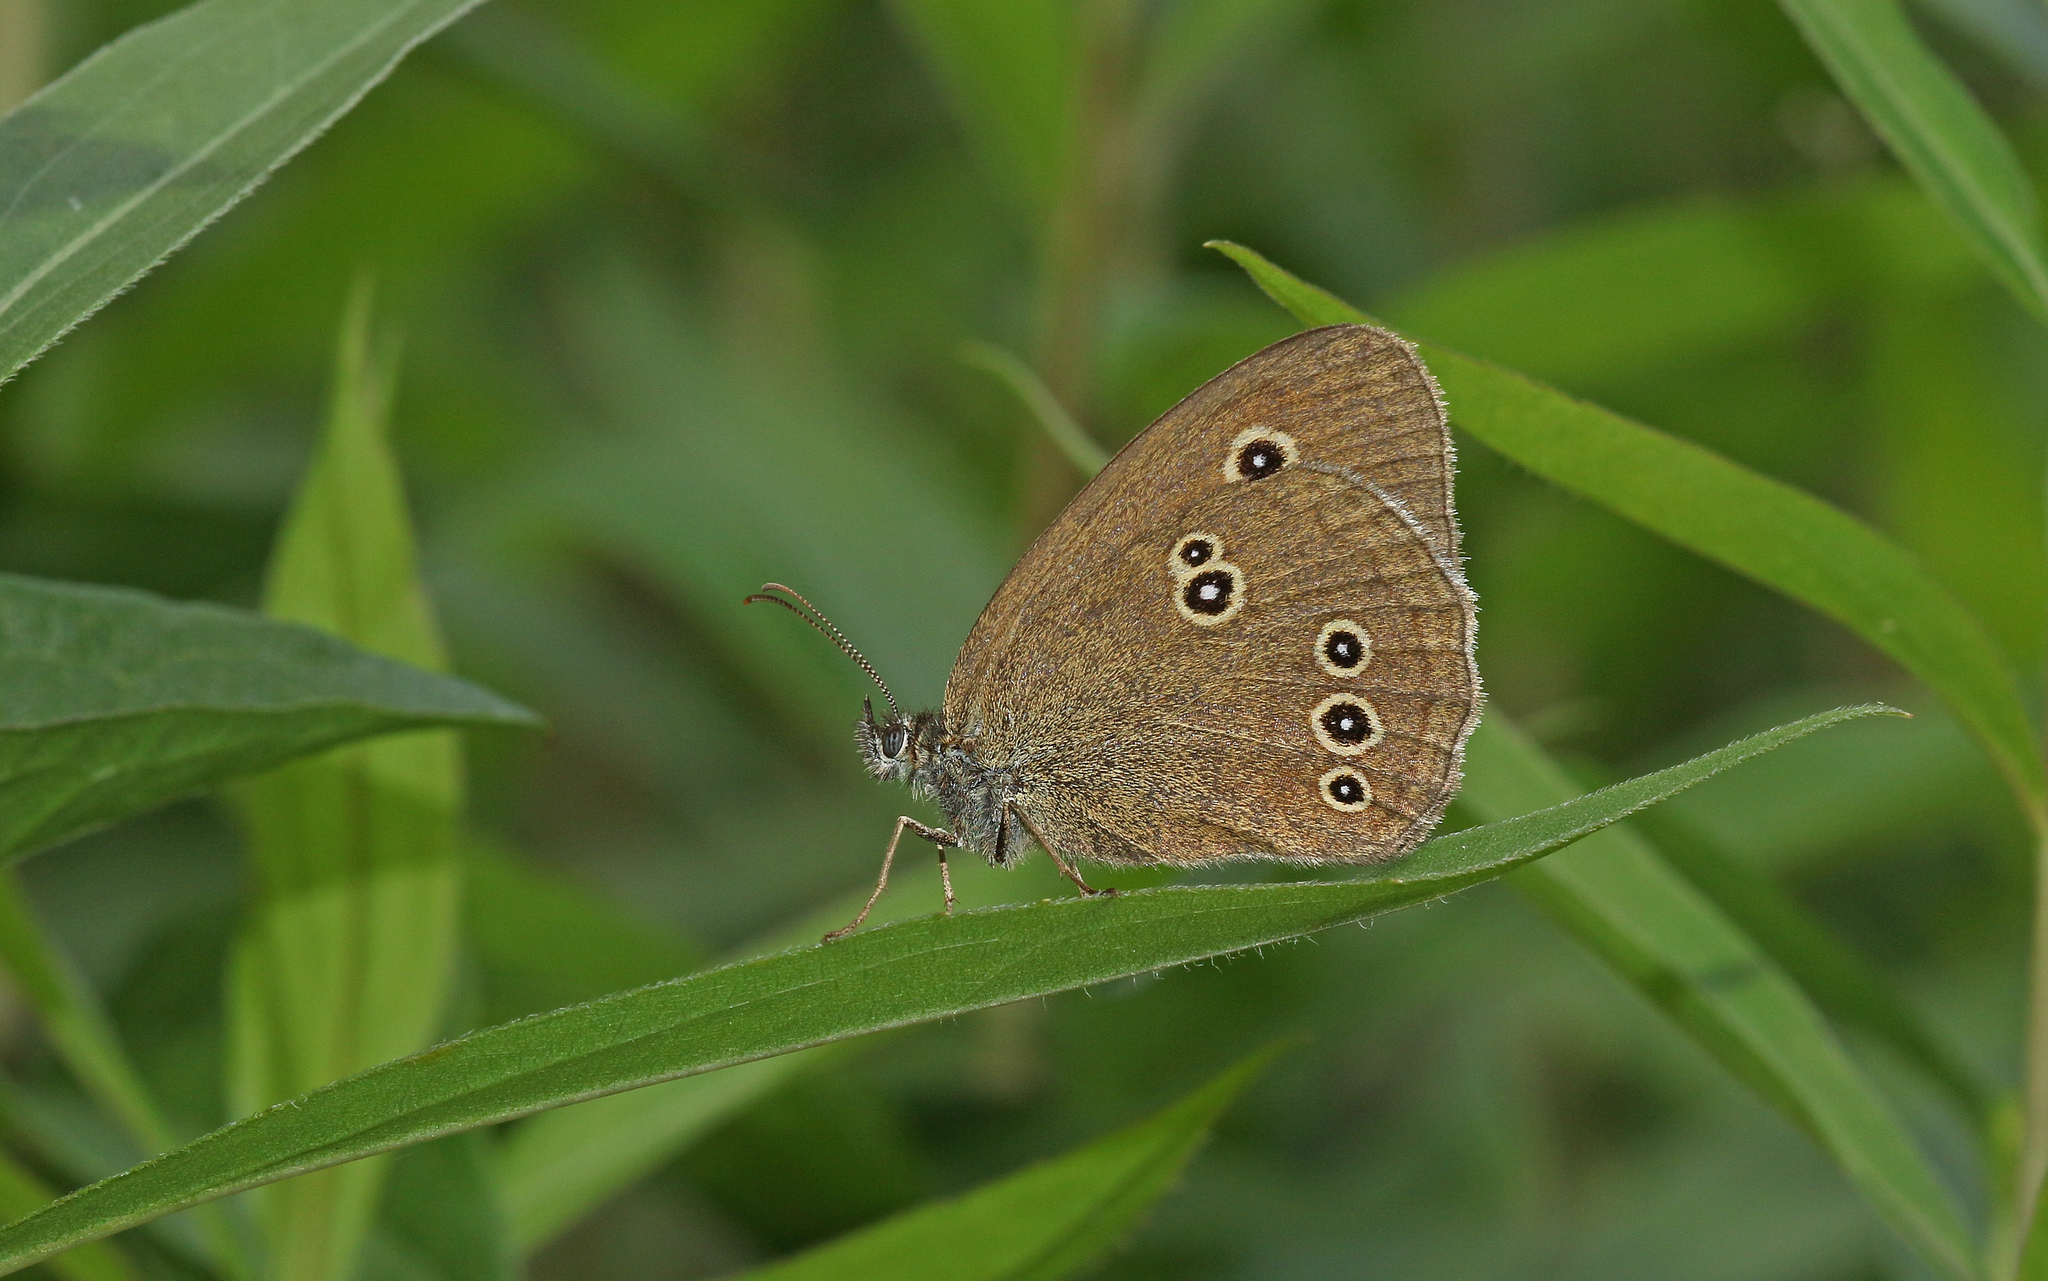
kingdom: Animalia
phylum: Arthropoda
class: Insecta
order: Lepidoptera
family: Nymphalidae
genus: Aphantopus
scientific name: Aphantopus hyperantus
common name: Ringlet
